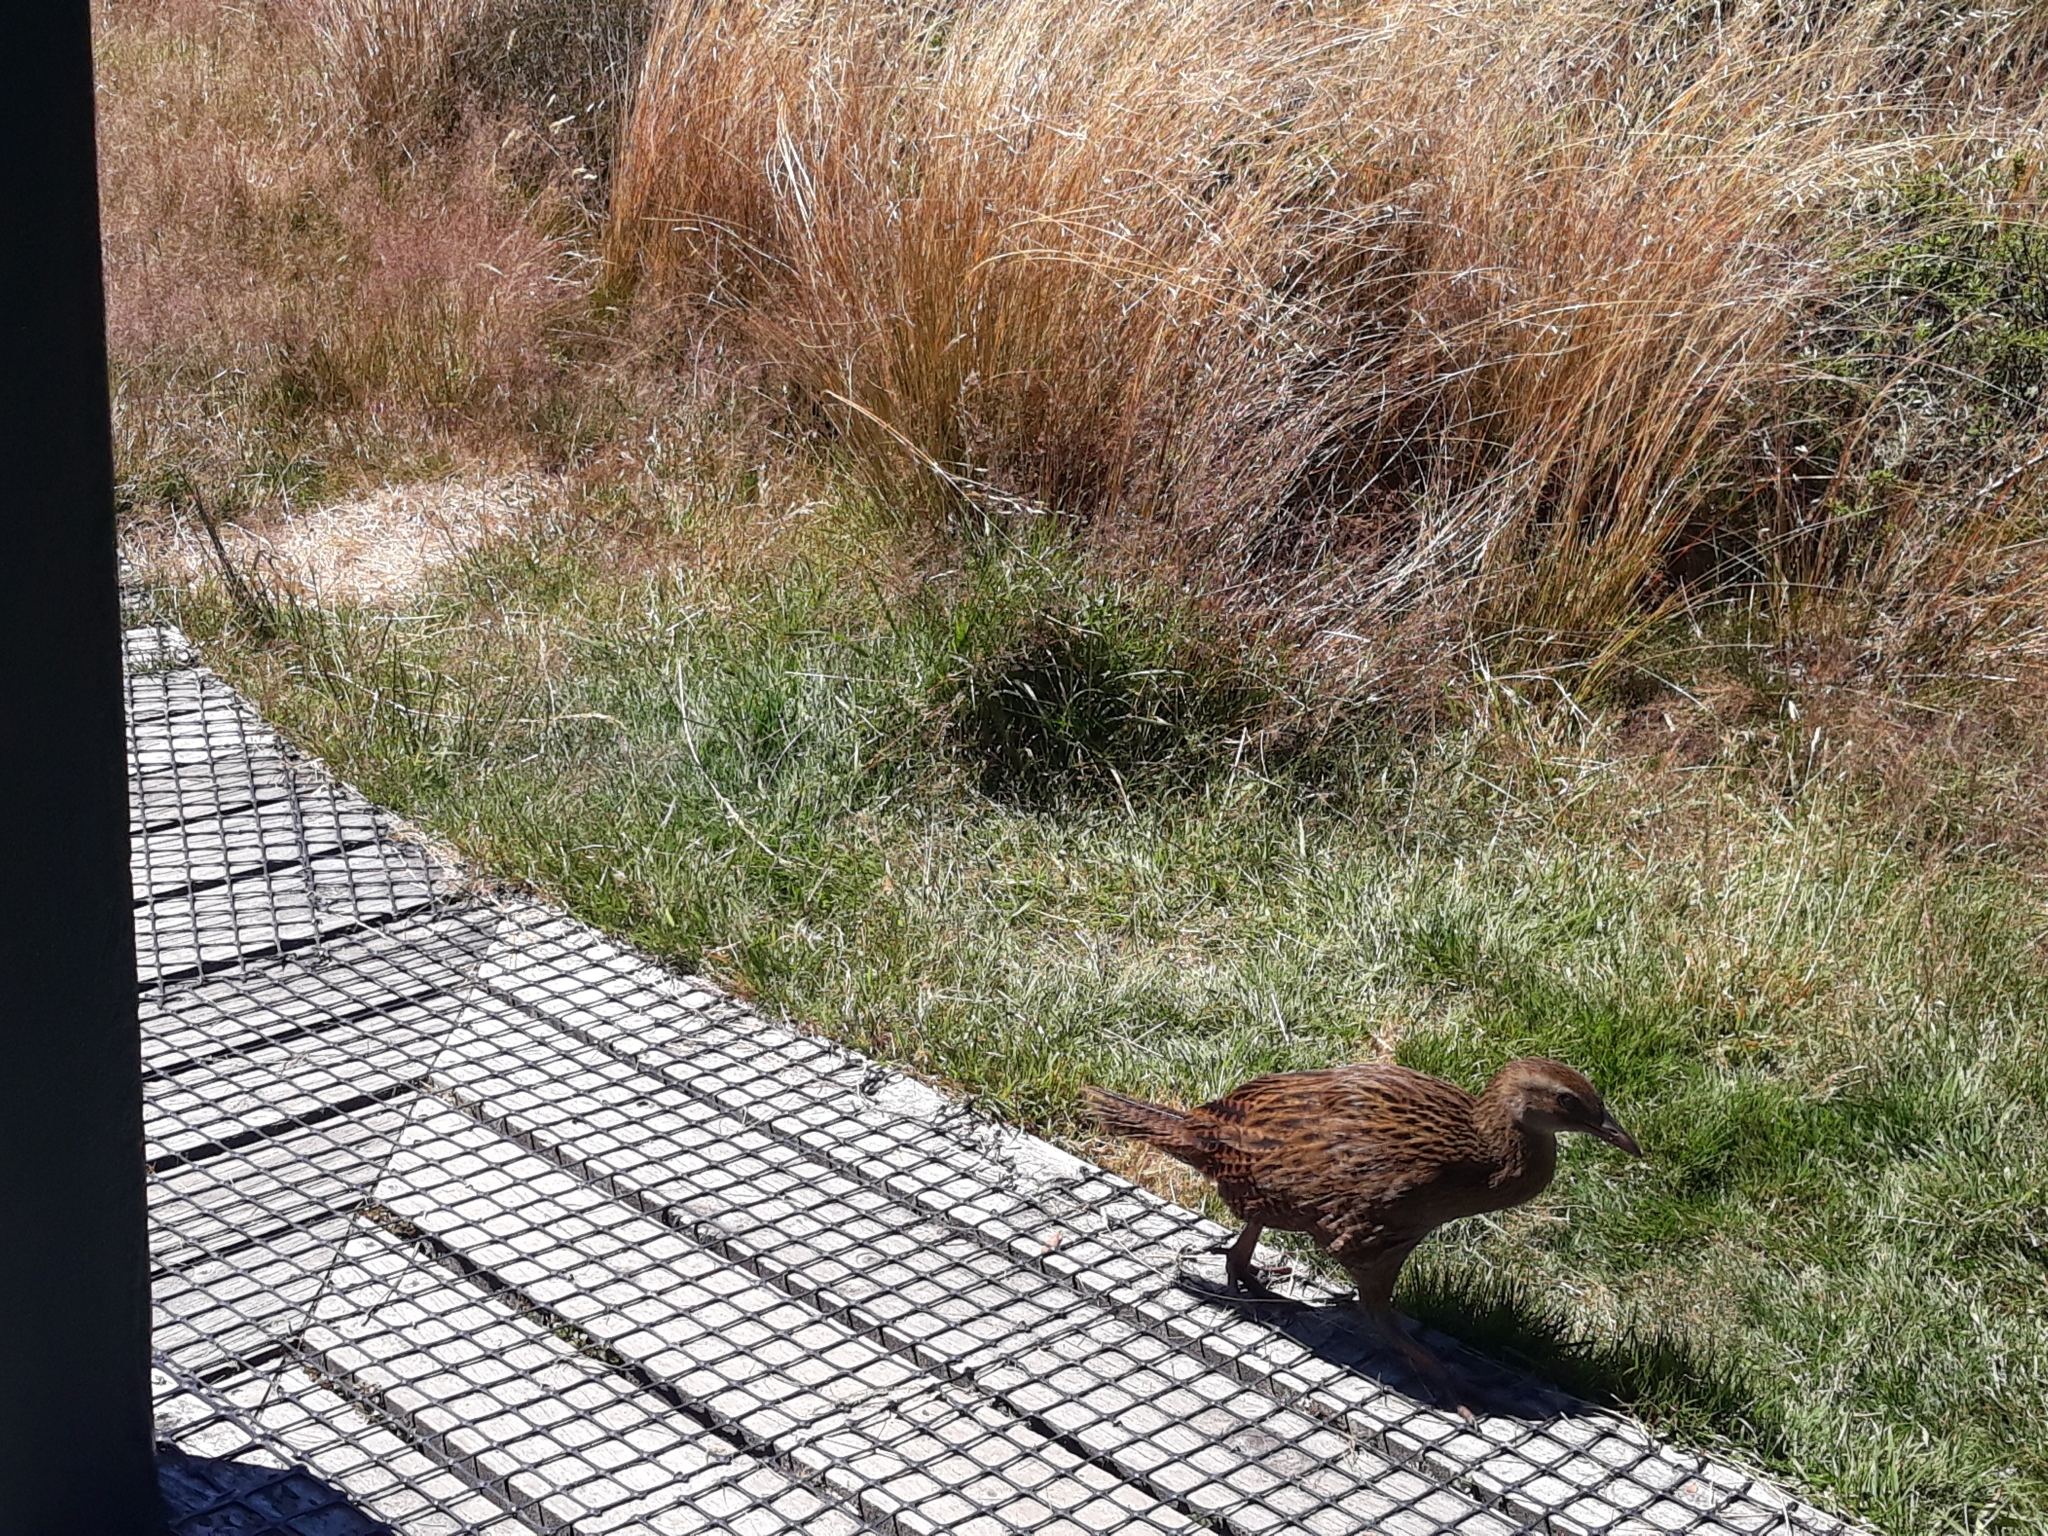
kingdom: Animalia
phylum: Chordata
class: Aves
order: Gruiformes
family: Rallidae
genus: Gallirallus
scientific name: Gallirallus australis
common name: Weka
